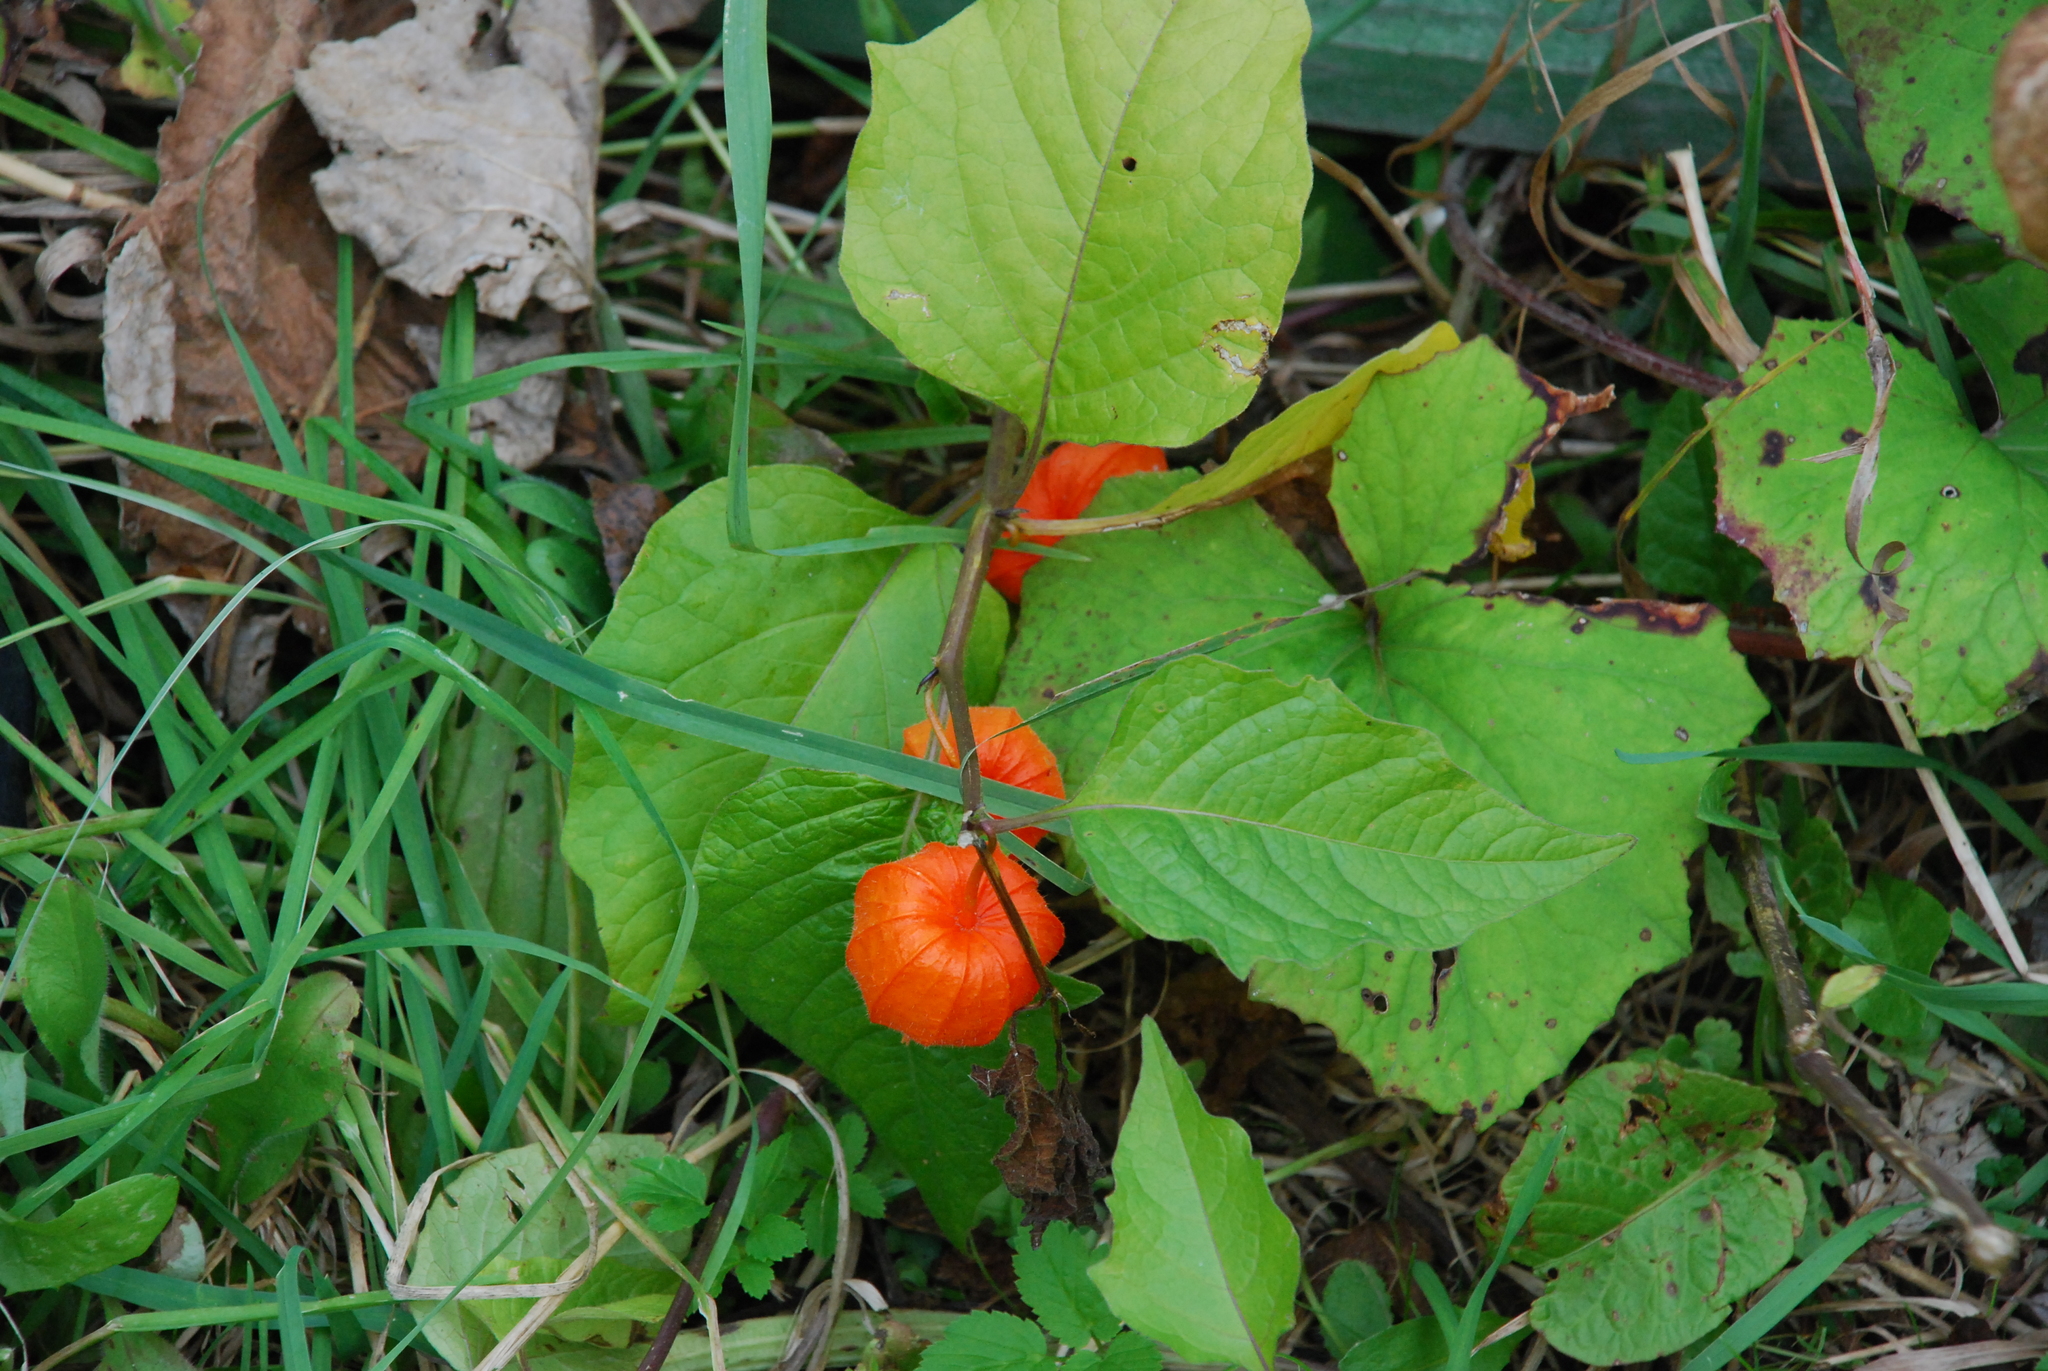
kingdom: Plantae
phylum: Tracheophyta
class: Magnoliopsida
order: Solanales
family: Solanaceae
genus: Alkekengi
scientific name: Alkekengi officinarum
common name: Japanese-lantern
